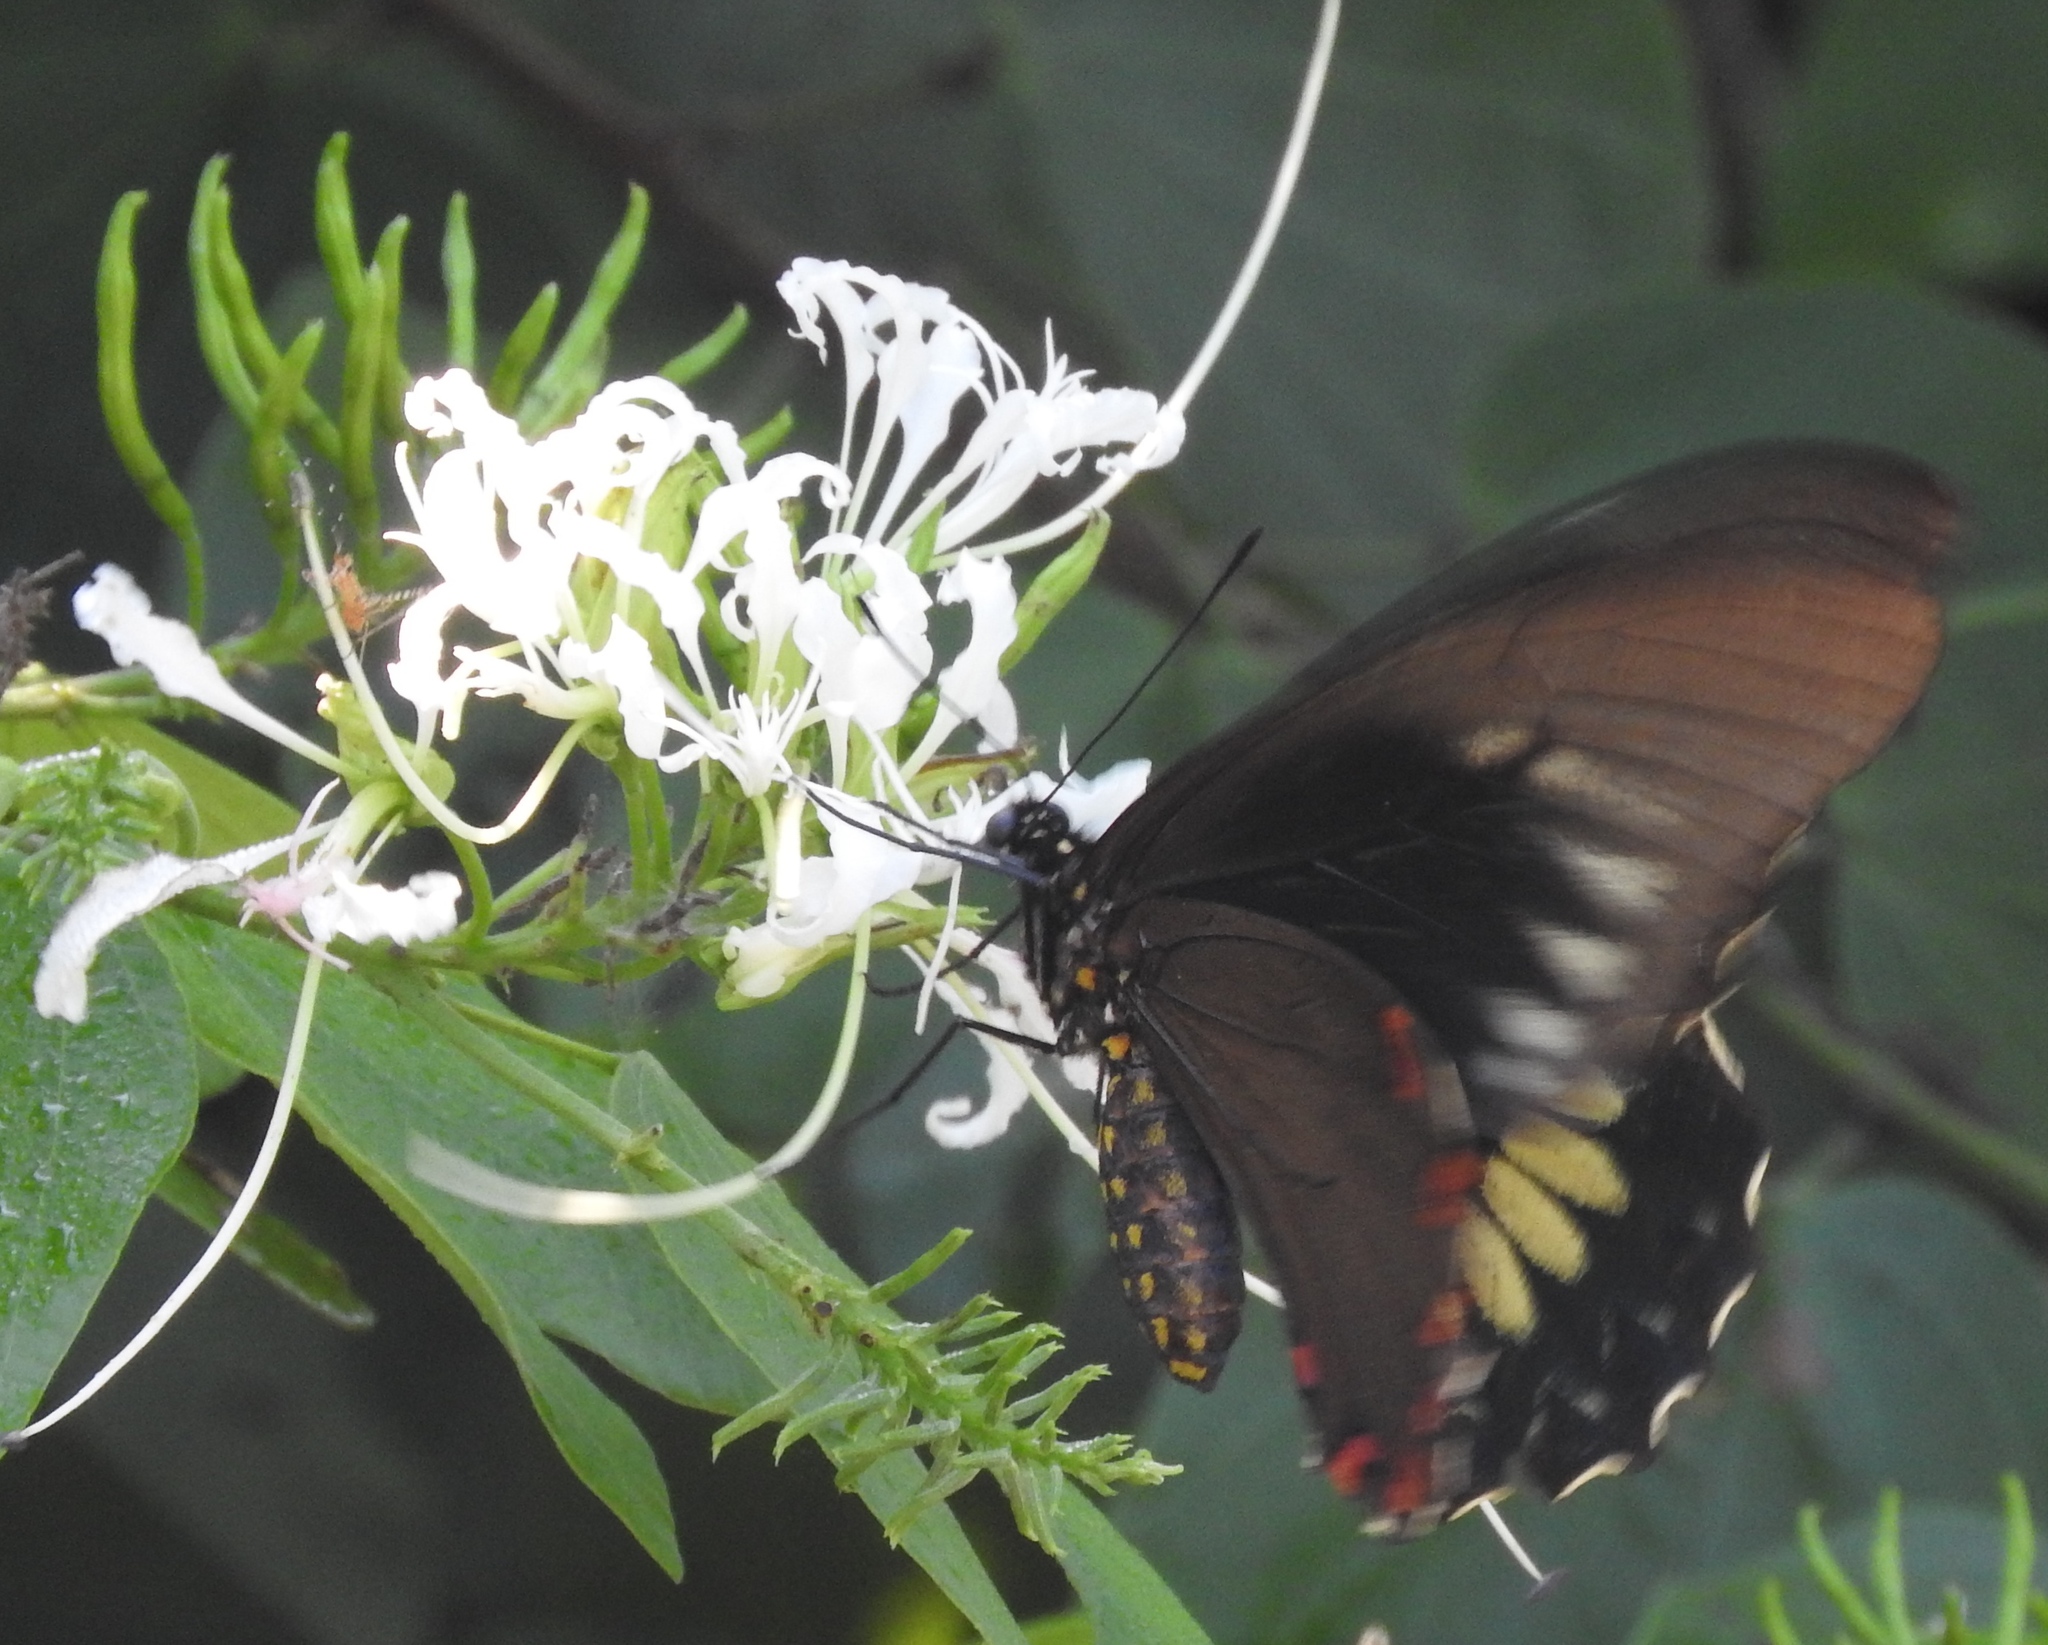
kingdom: Animalia
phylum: Arthropoda
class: Insecta
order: Lepidoptera
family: Papilionidae
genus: Battus
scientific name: Battus laodamas
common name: Green-patch swallowtail
